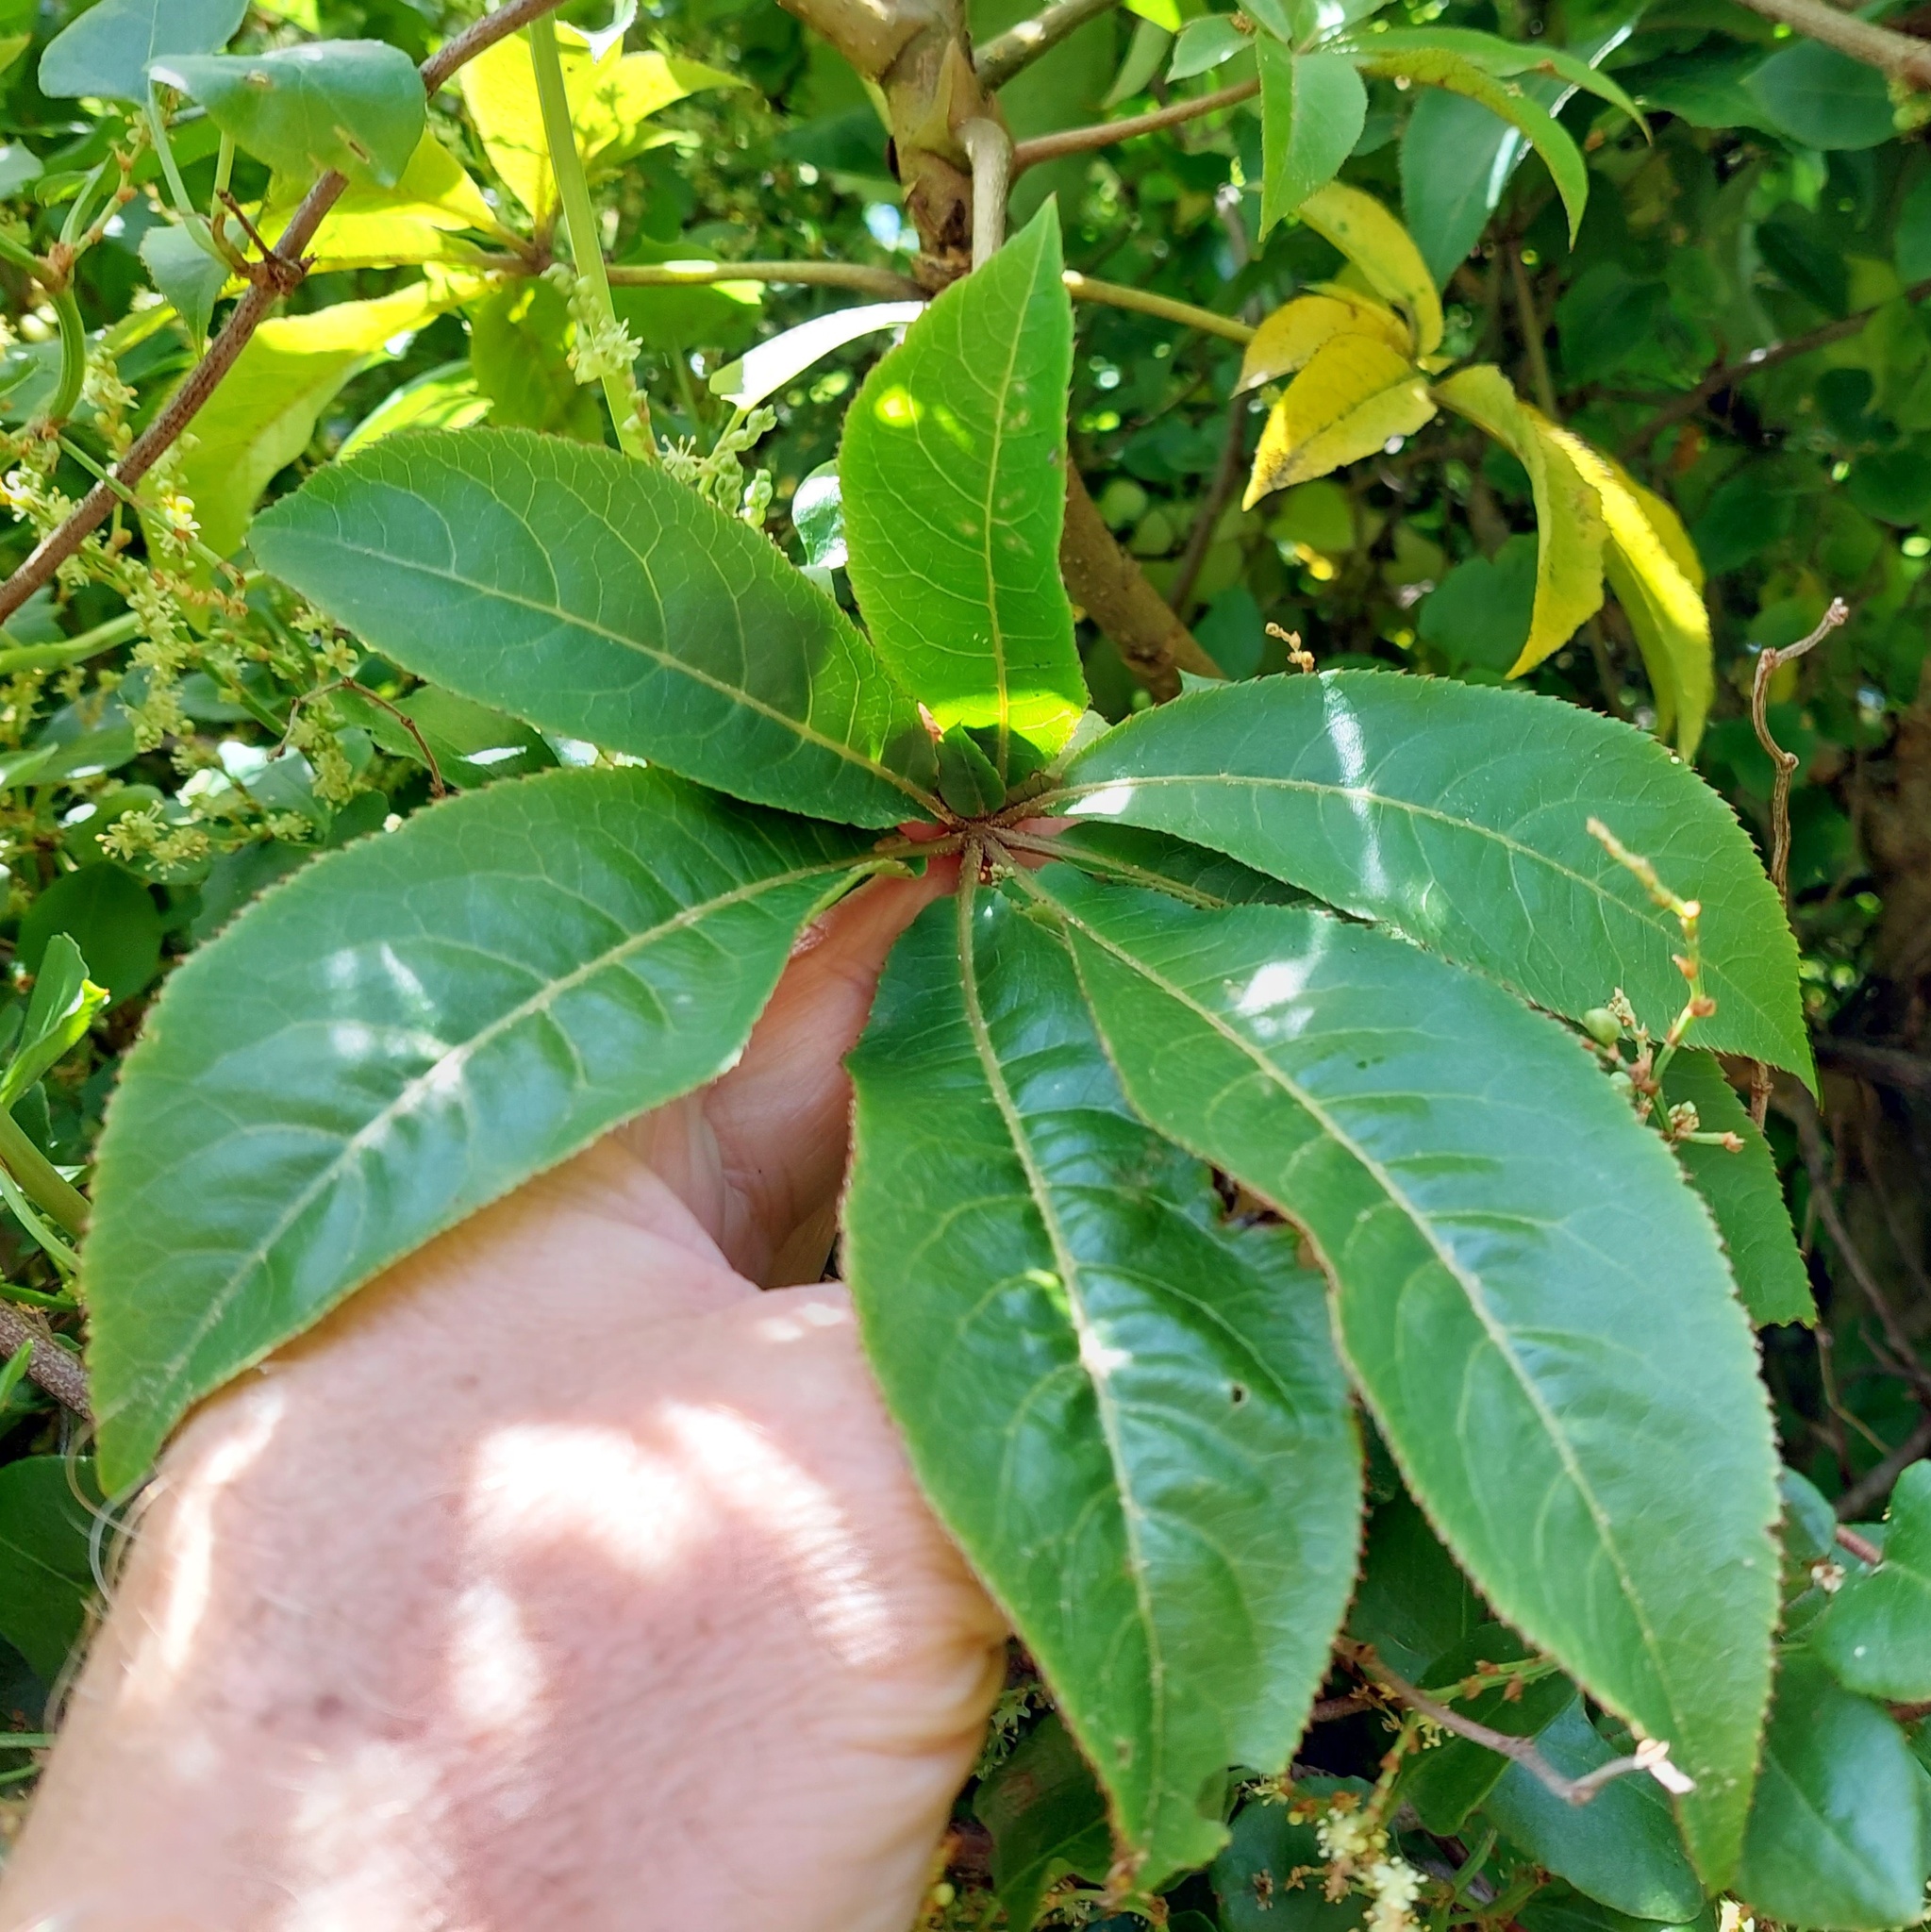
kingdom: Plantae
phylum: Tracheophyta
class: Magnoliopsida
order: Apiales
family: Araliaceae
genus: Schefflera
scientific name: Schefflera digitata
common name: Pate
